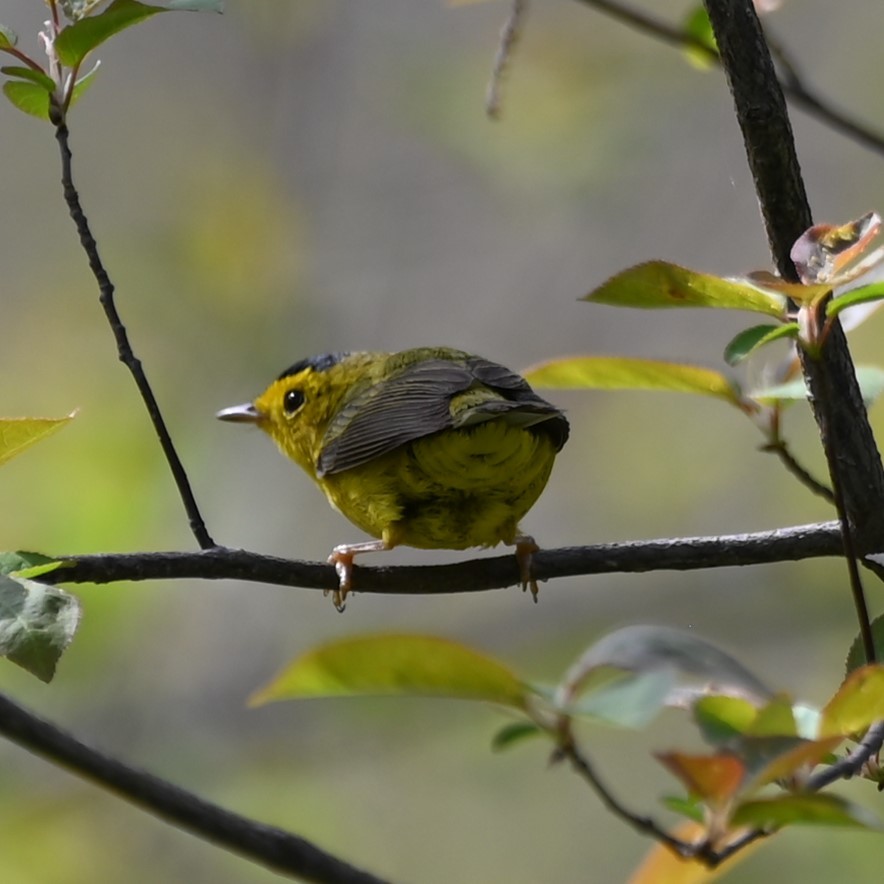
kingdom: Animalia
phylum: Chordata
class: Aves
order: Passeriformes
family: Parulidae
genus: Cardellina
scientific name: Cardellina pusilla
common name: Wilson's warbler
